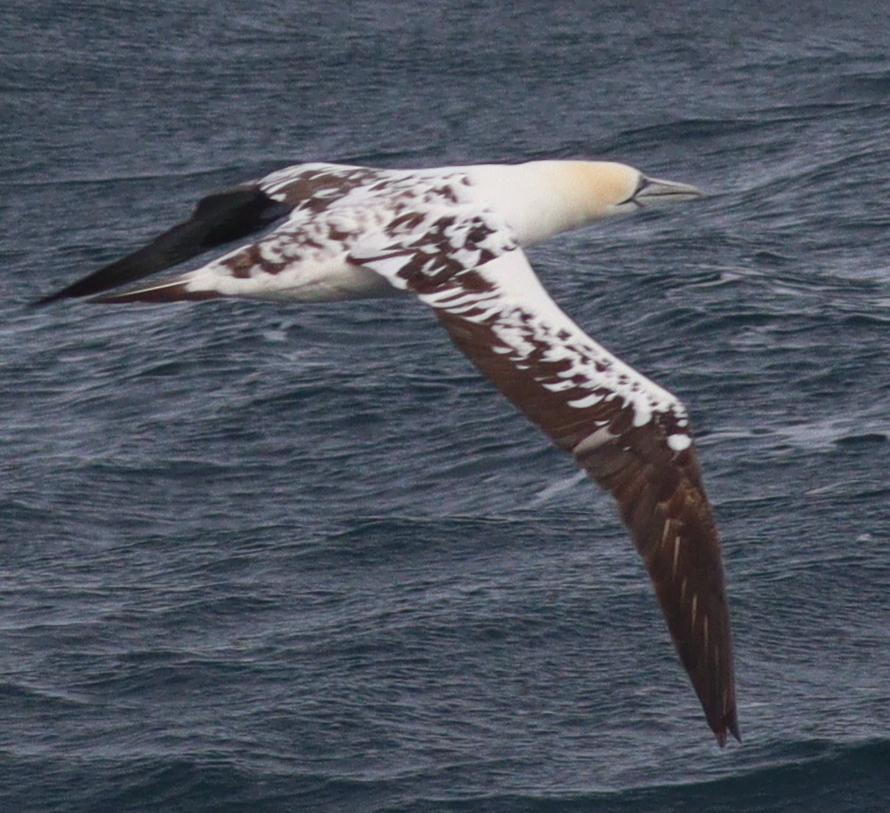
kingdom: Animalia
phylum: Chordata
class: Aves
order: Suliformes
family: Sulidae
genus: Morus
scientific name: Morus bassanus
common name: Northern gannet
